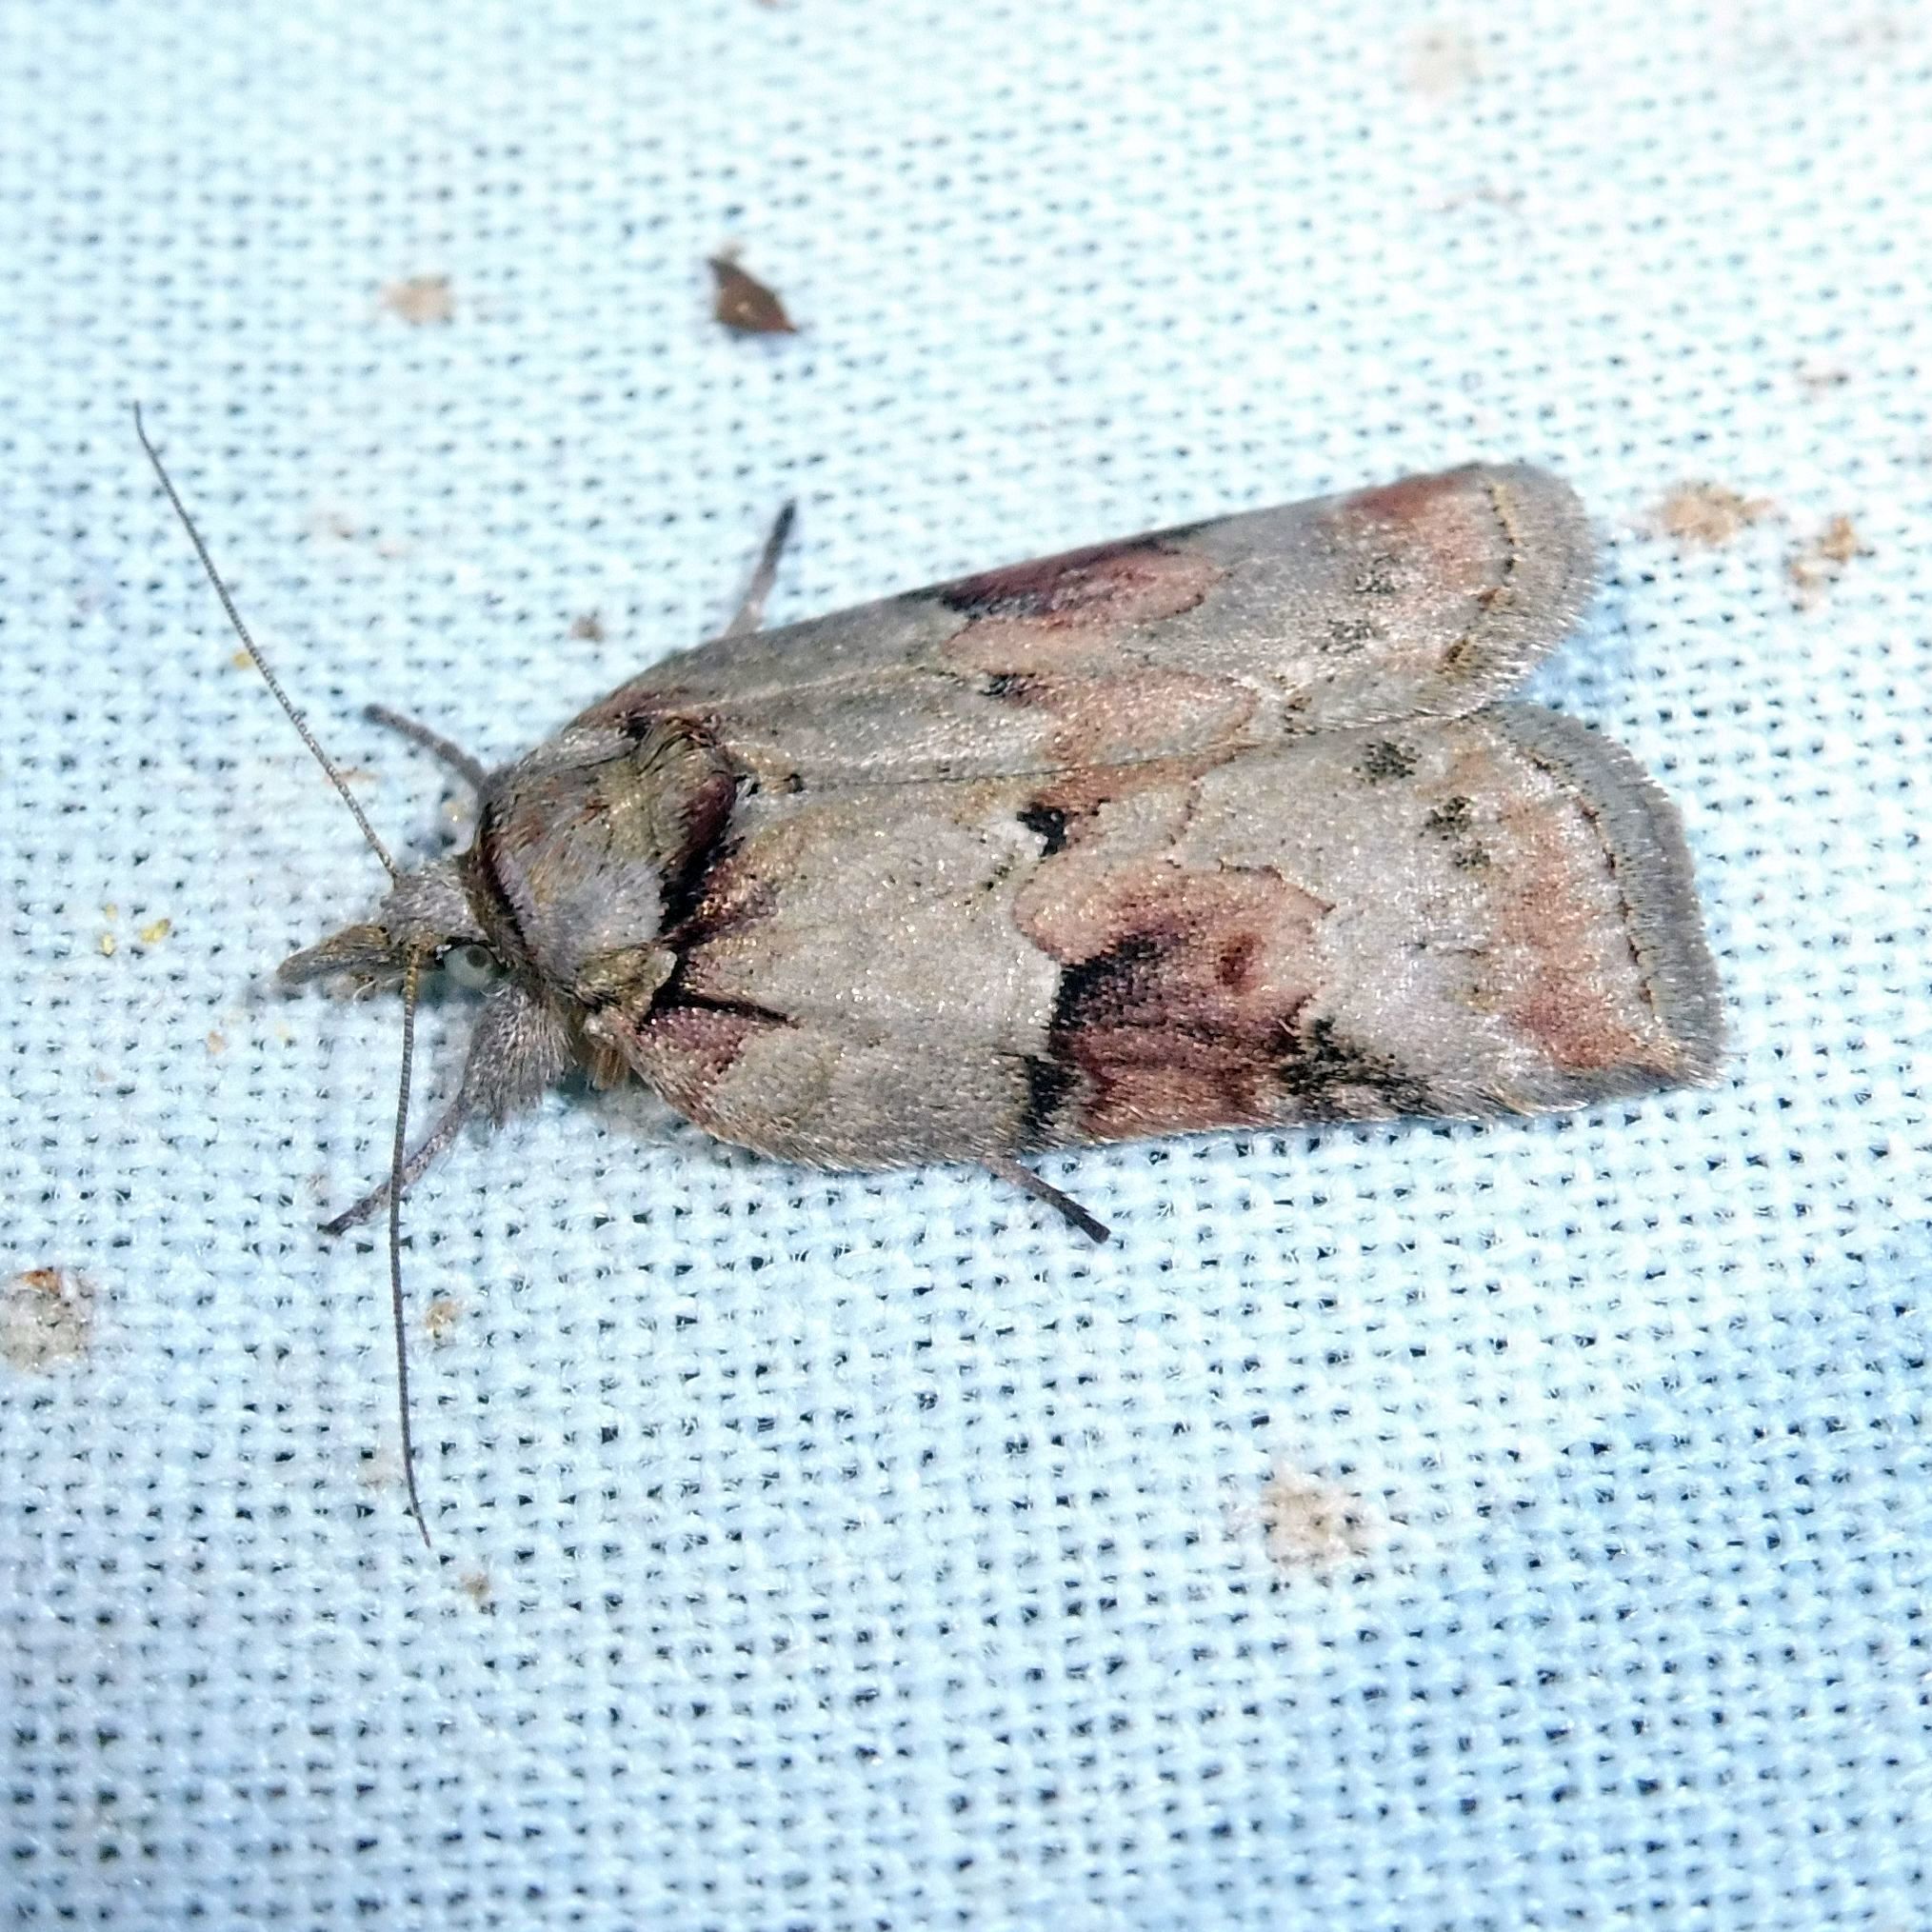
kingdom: Animalia
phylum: Arthropoda
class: Insecta
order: Lepidoptera
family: Nolidae
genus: Nycteola
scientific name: Nycteola revayana
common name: Oak nycteoline
